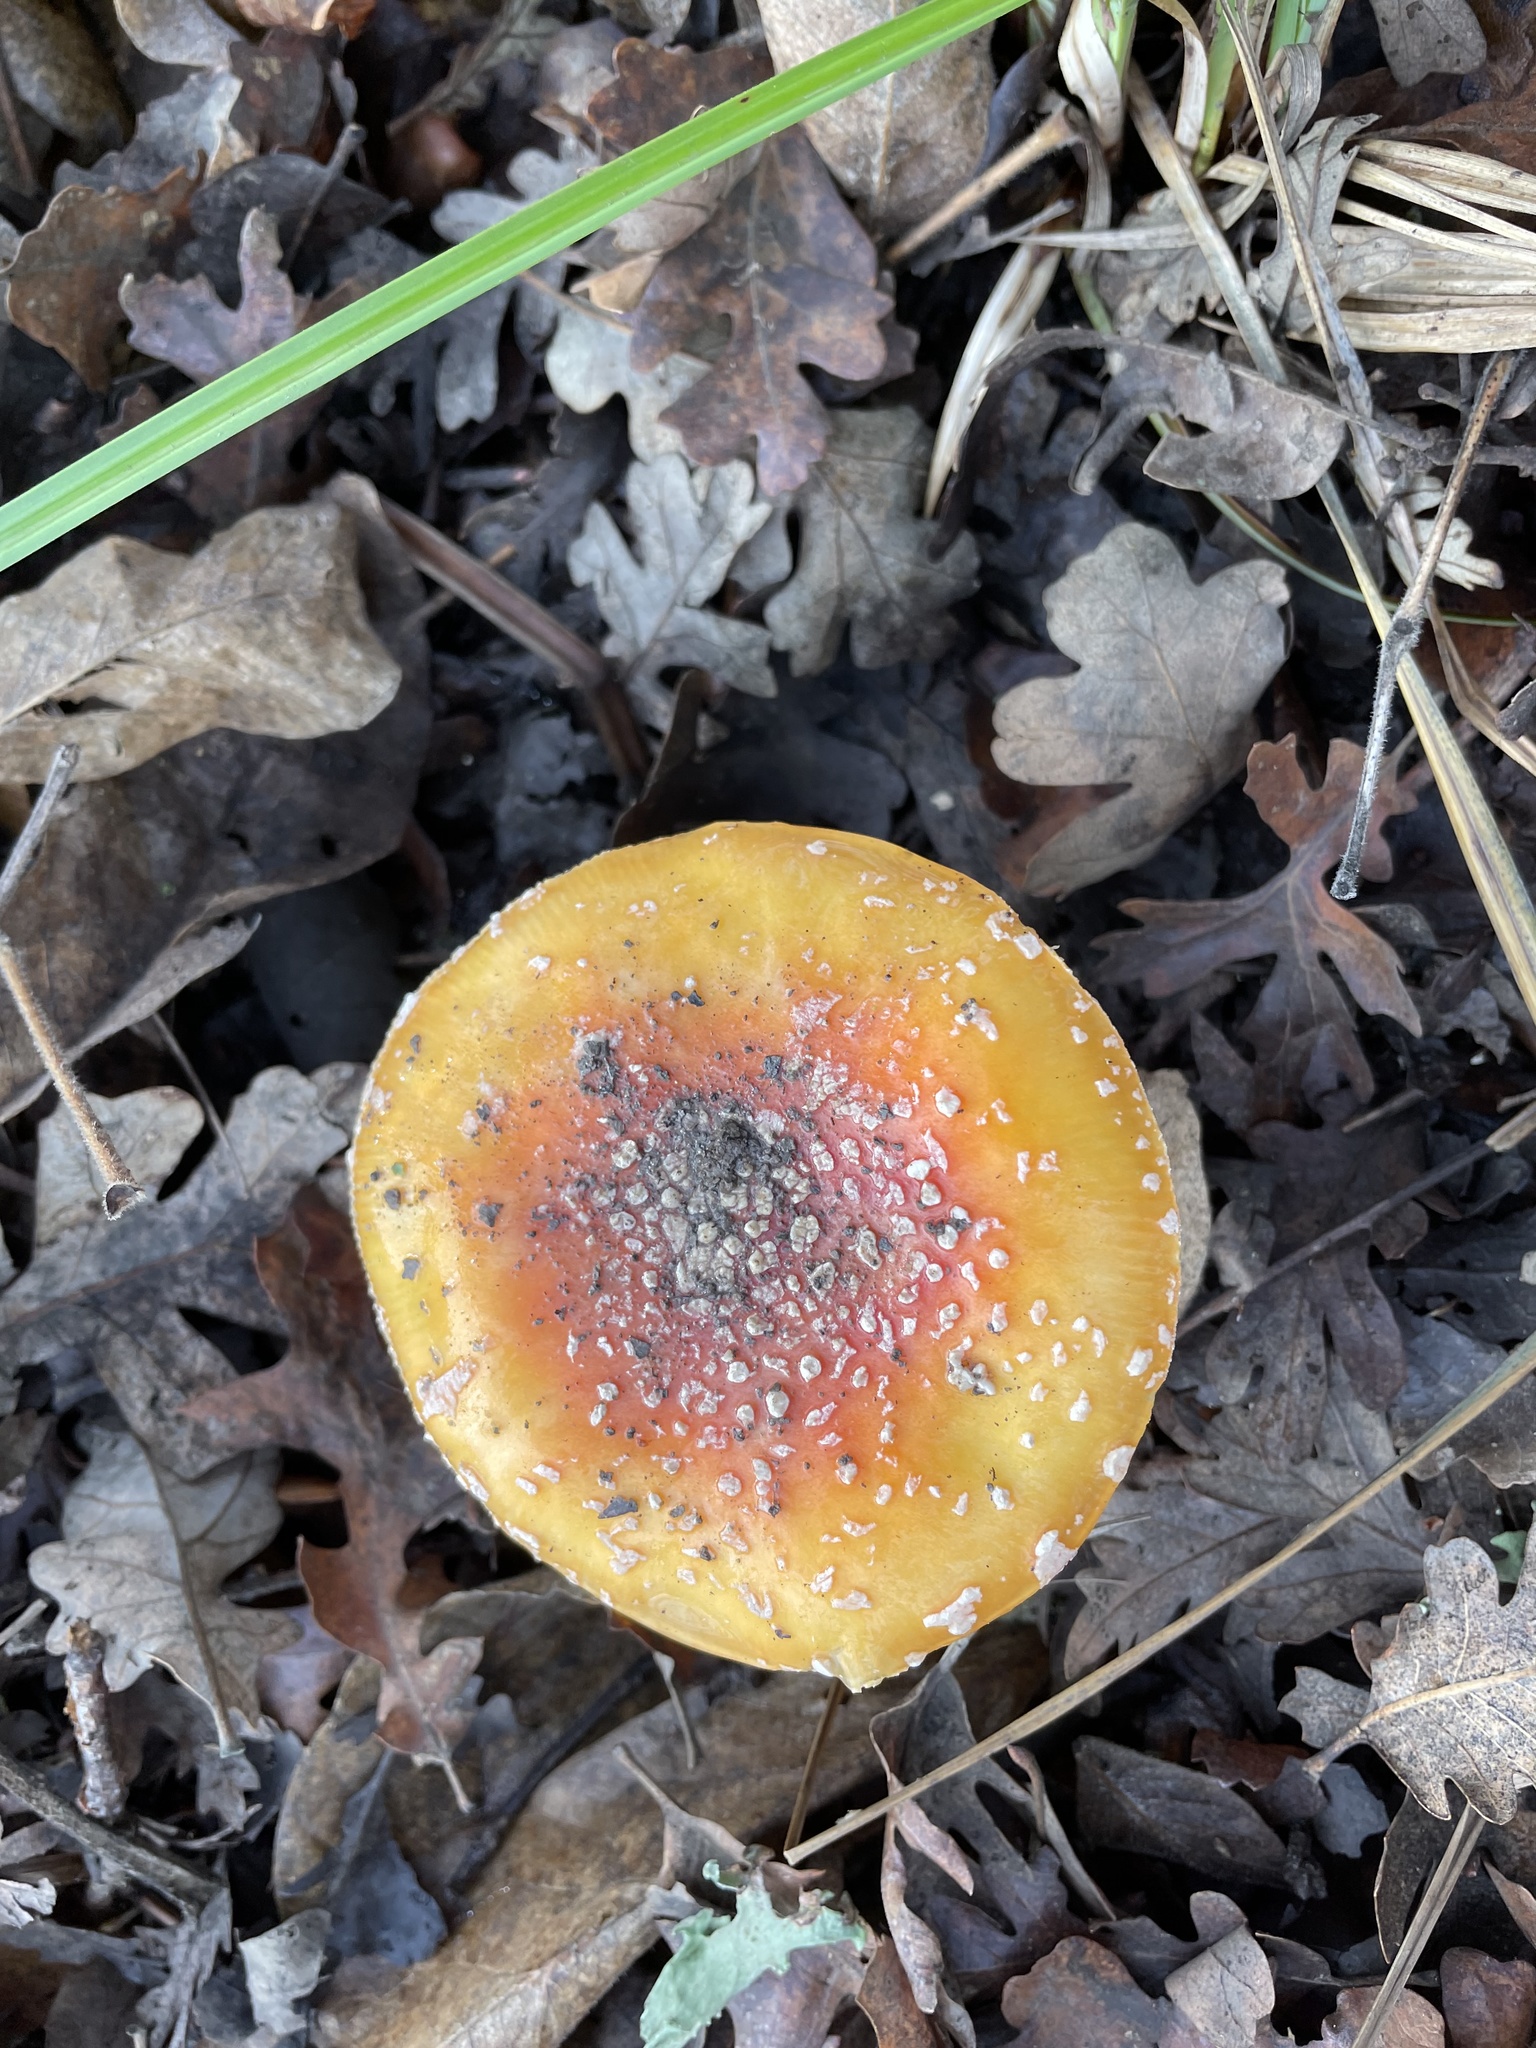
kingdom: Fungi
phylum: Basidiomycota
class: Agaricomycetes
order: Agaricales
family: Amanitaceae
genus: Amanita
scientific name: Amanita muscaria
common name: Fly agaric
